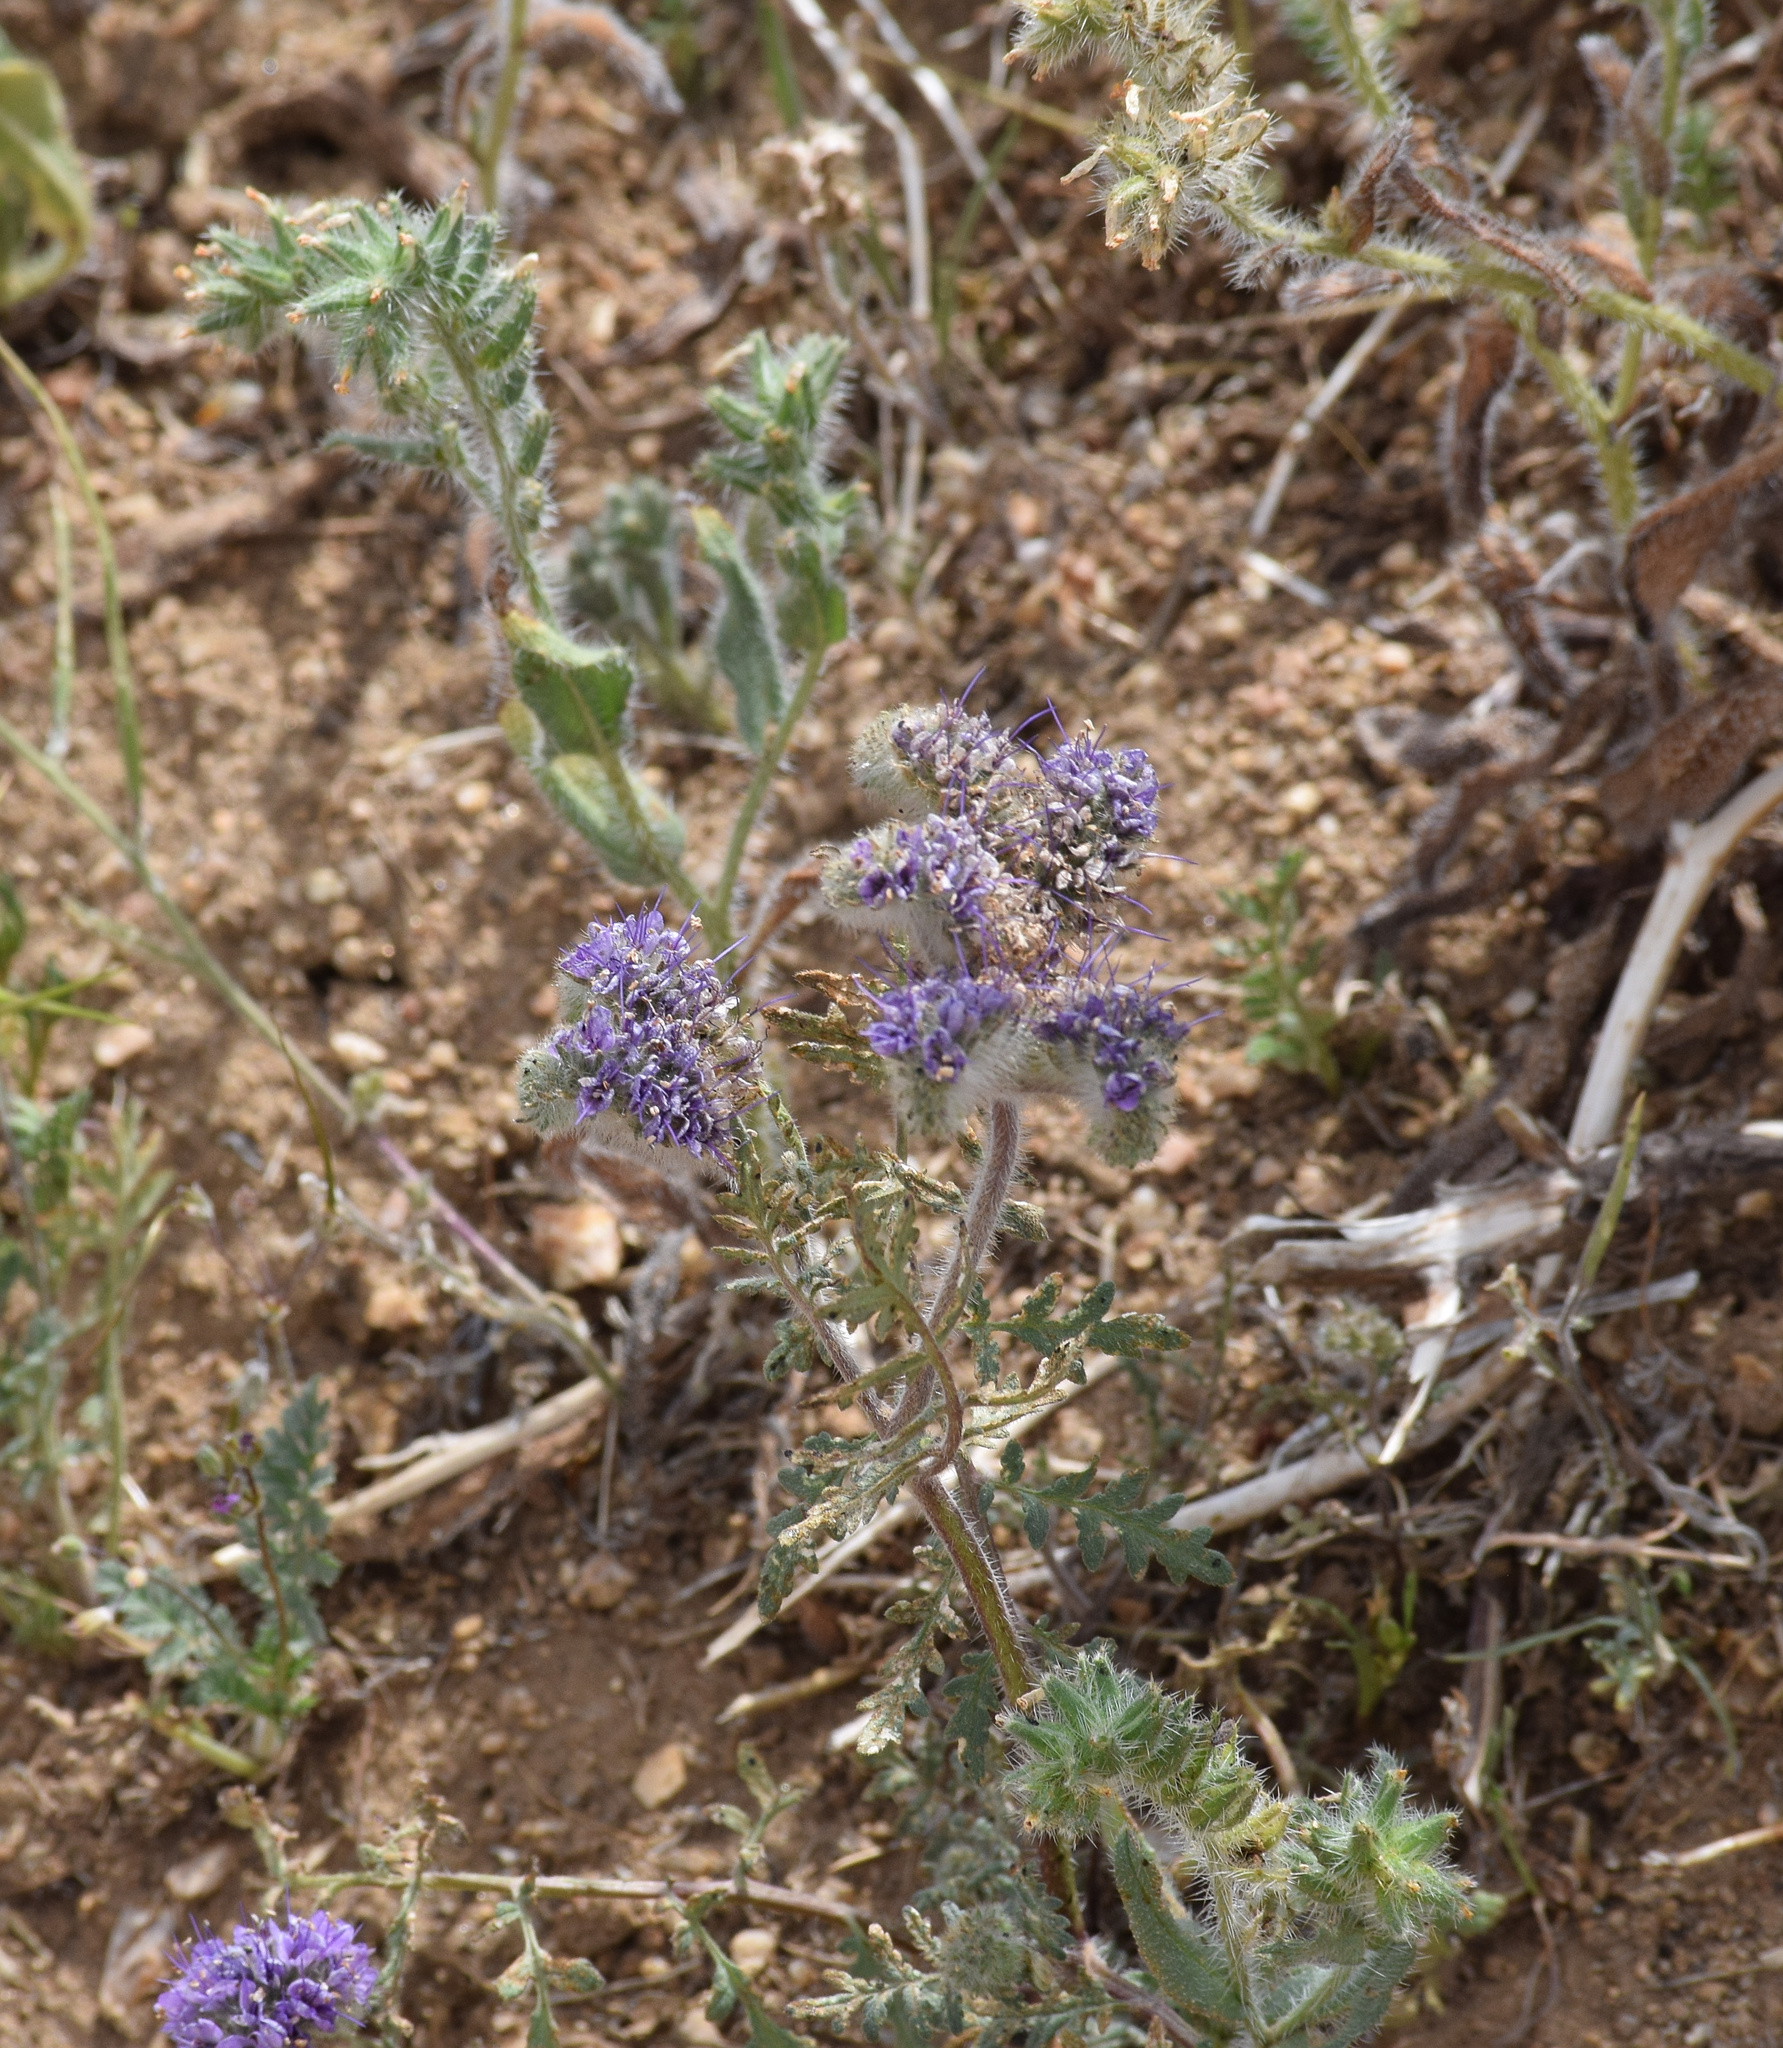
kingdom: Plantae
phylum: Tracheophyta
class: Magnoliopsida
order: Boraginales
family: Hydrophyllaceae
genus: Phacelia
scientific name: Phacelia tanacetifolia
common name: Phacelia
